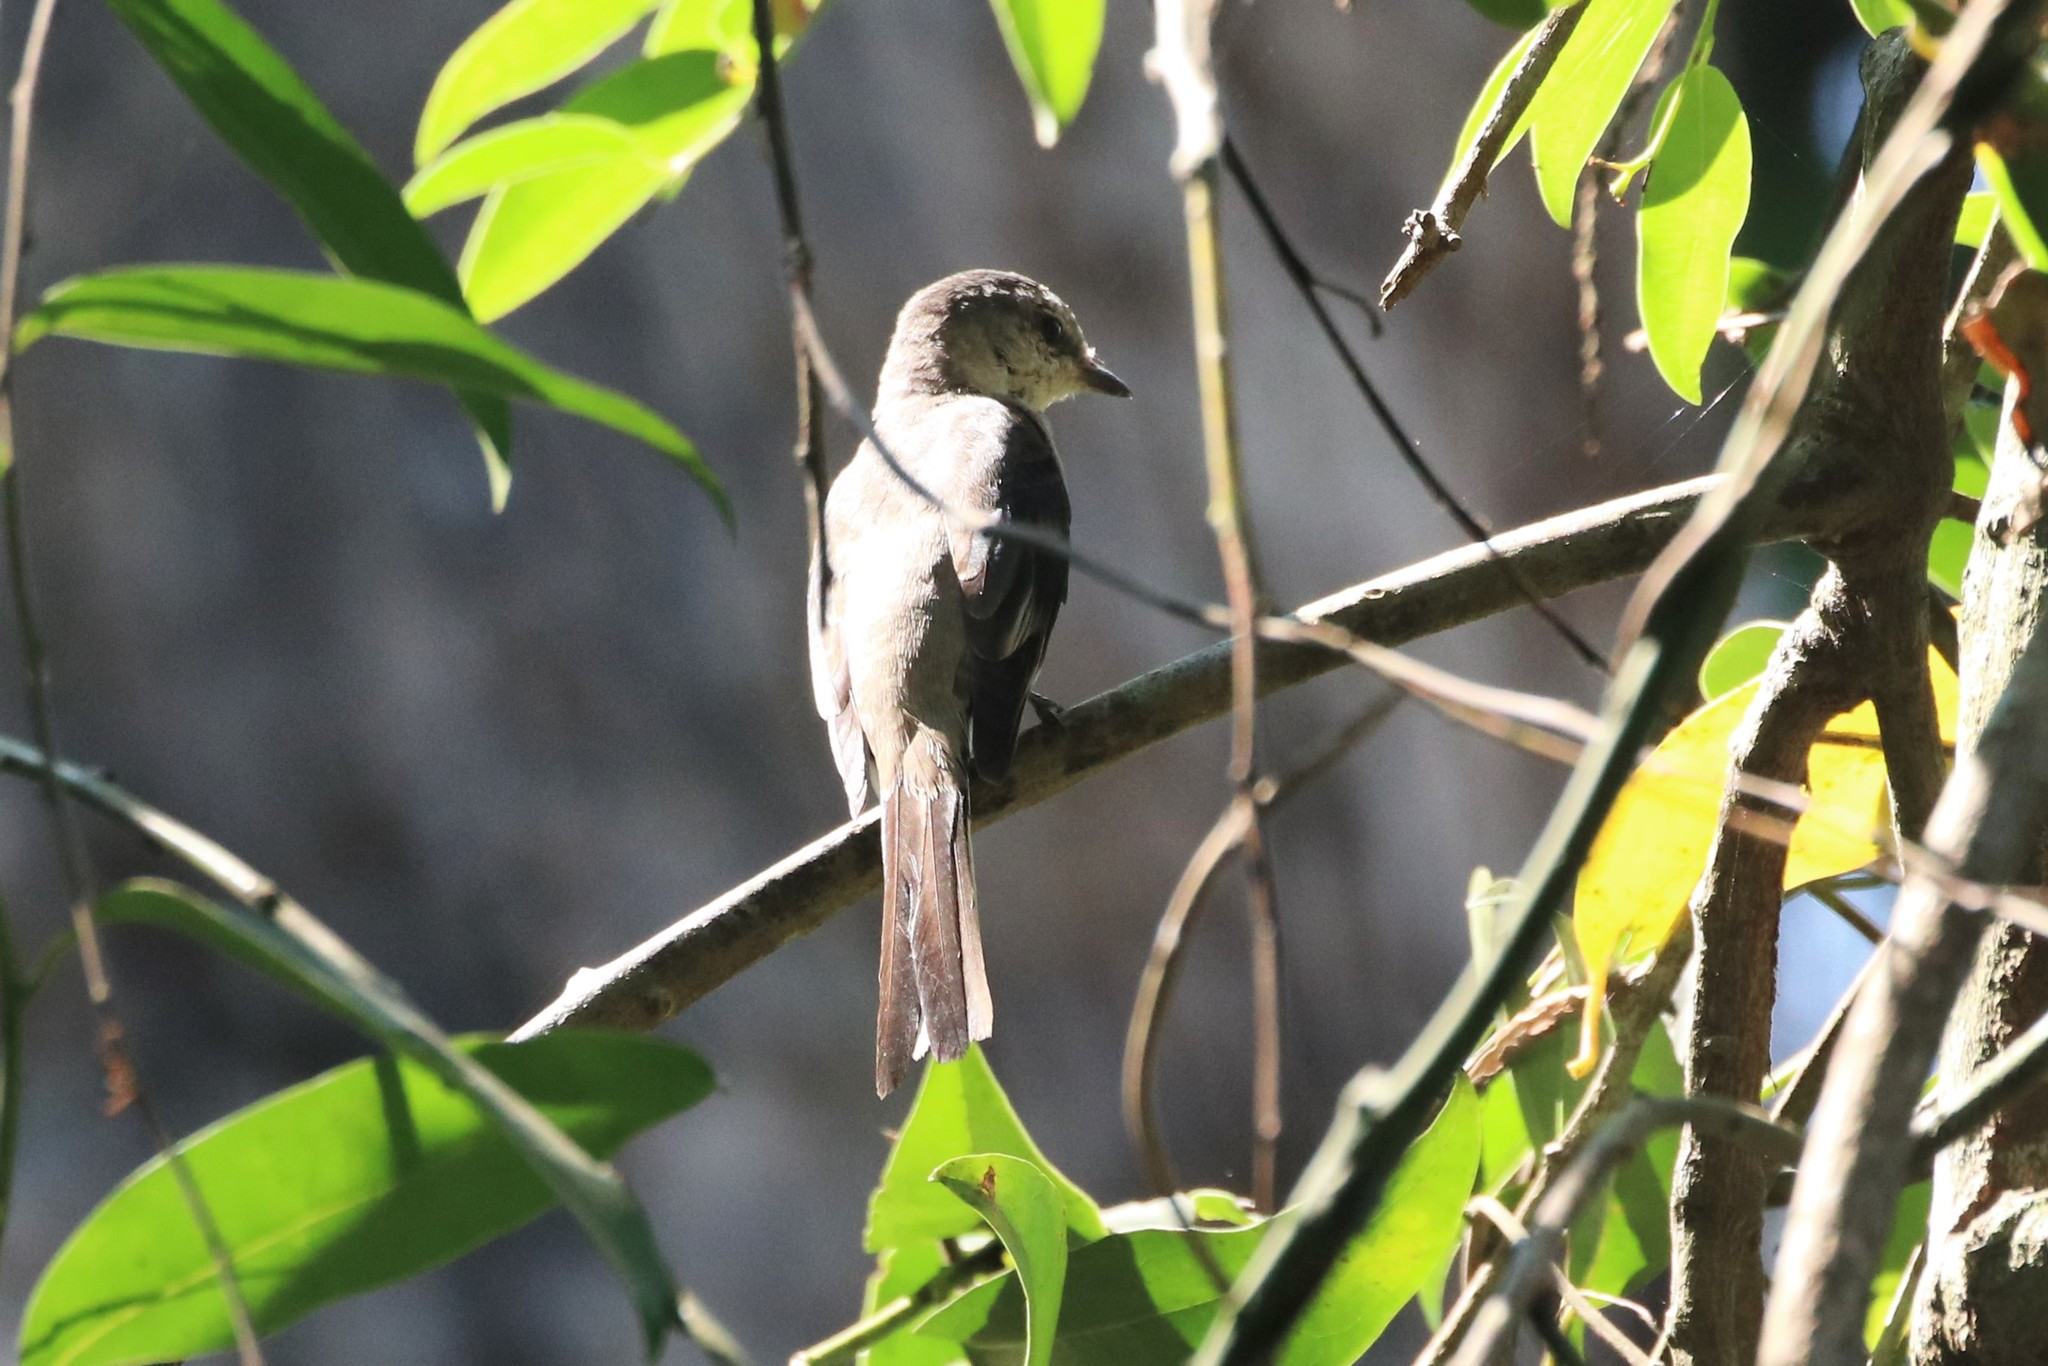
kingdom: Animalia
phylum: Chordata
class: Aves
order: Passeriformes
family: Campephagidae
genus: Pericrocotus
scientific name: Pericrocotus divaricatus
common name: Ashy minivet
